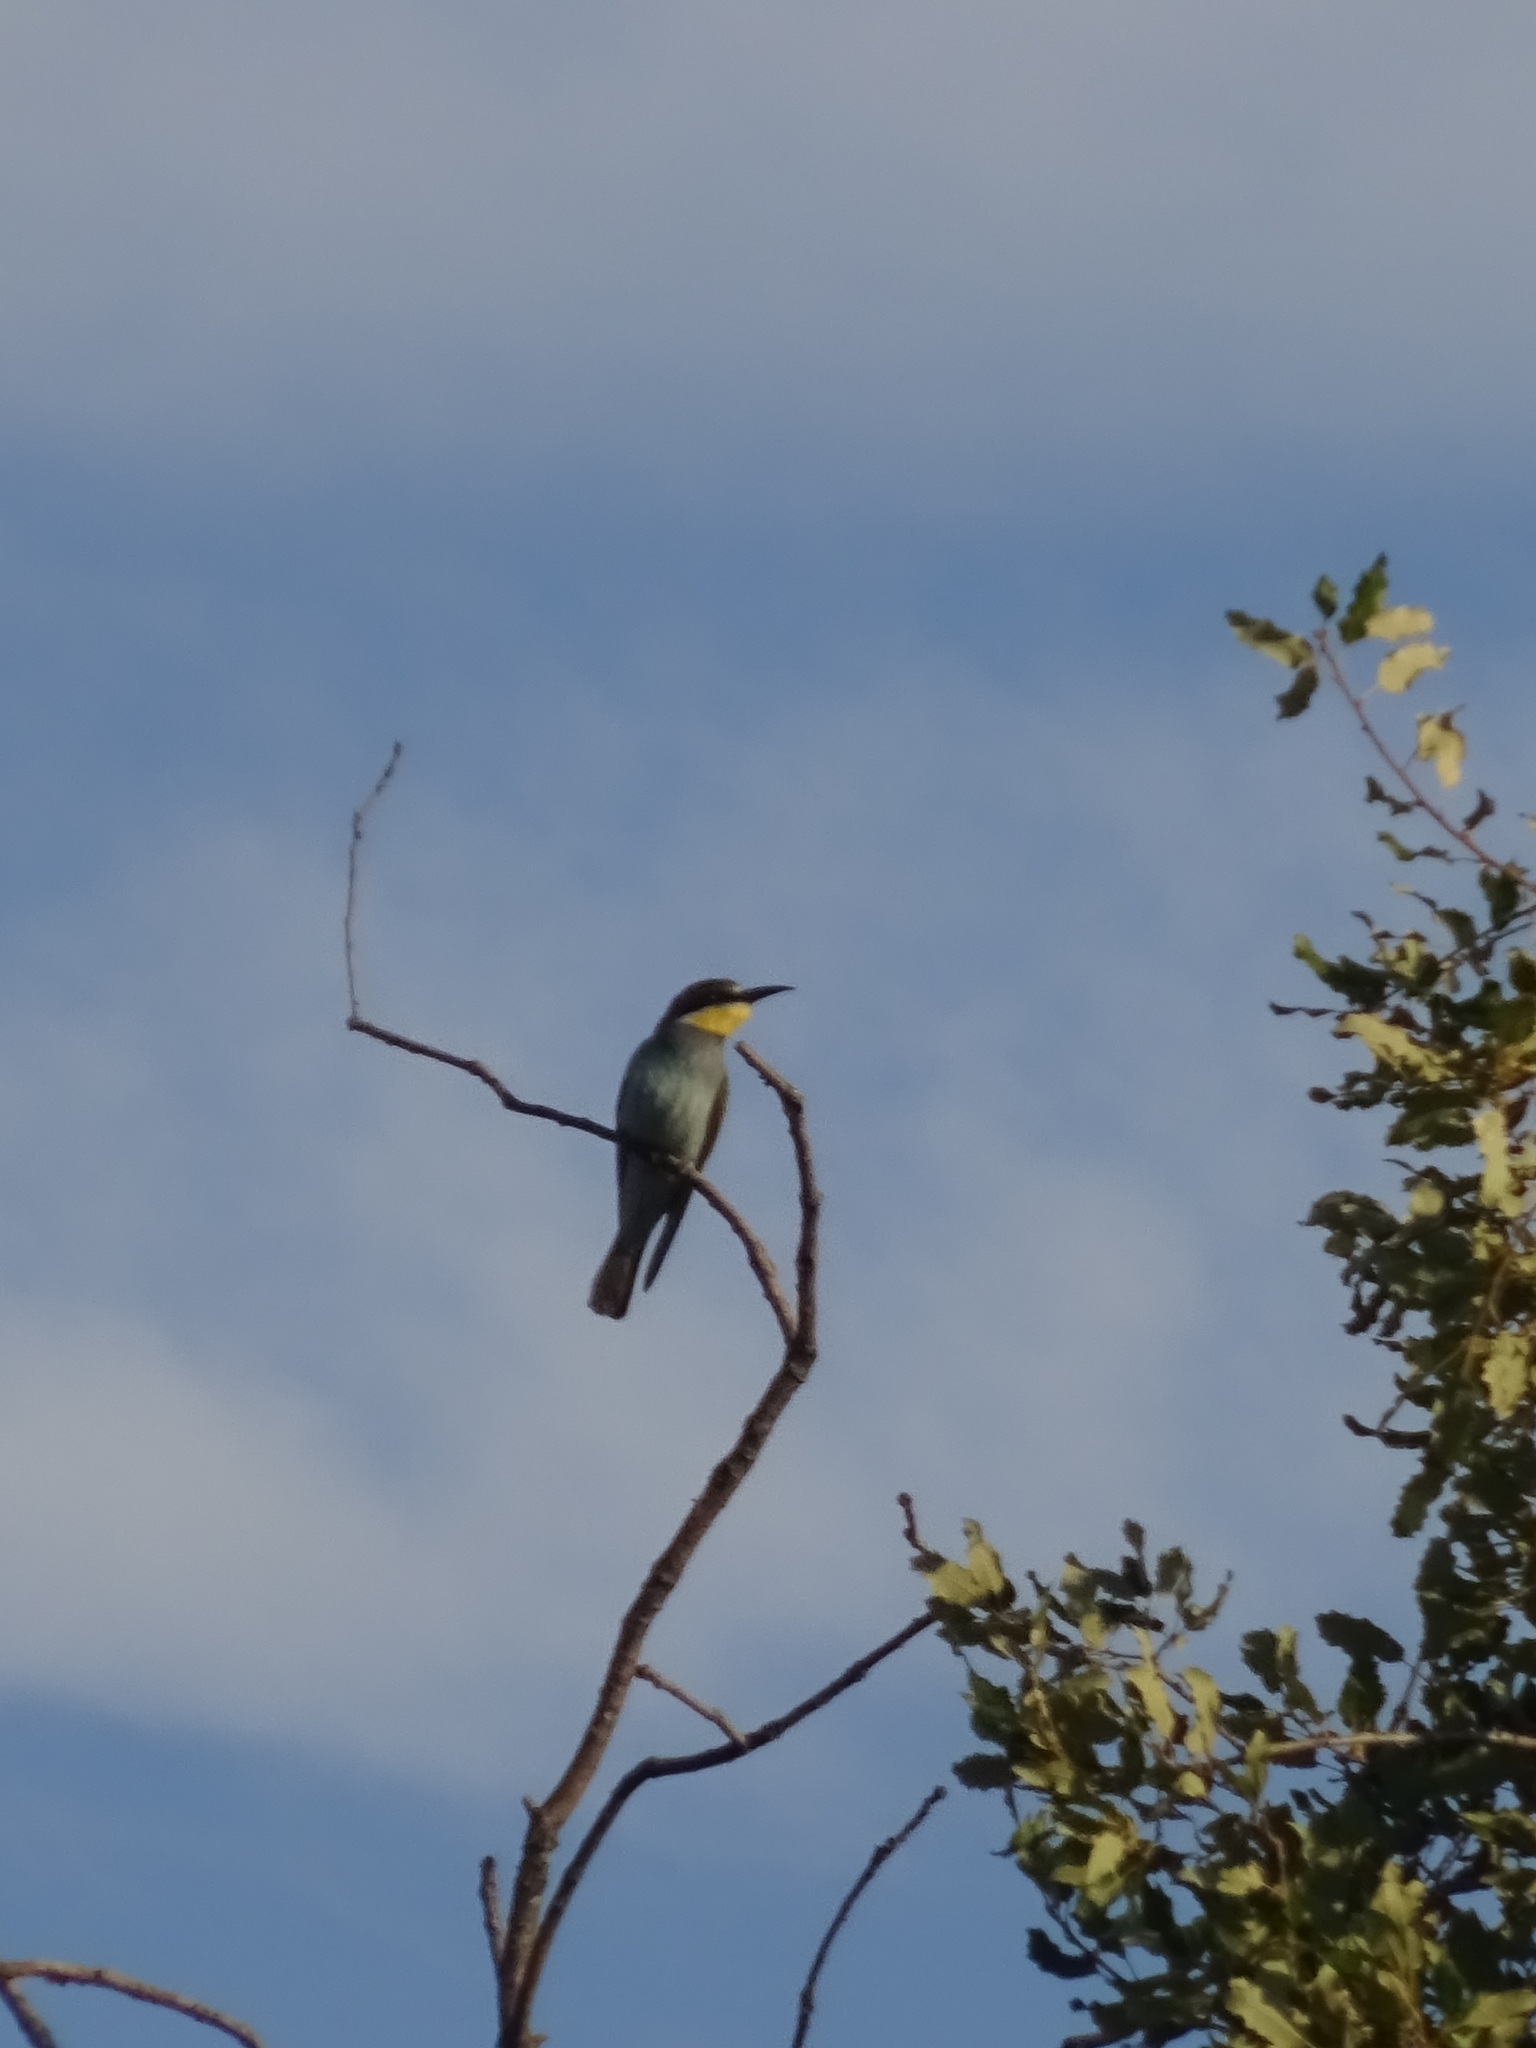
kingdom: Animalia
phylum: Chordata
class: Aves
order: Coraciiformes
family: Meropidae
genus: Merops
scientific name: Merops apiaster
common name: European bee-eater
